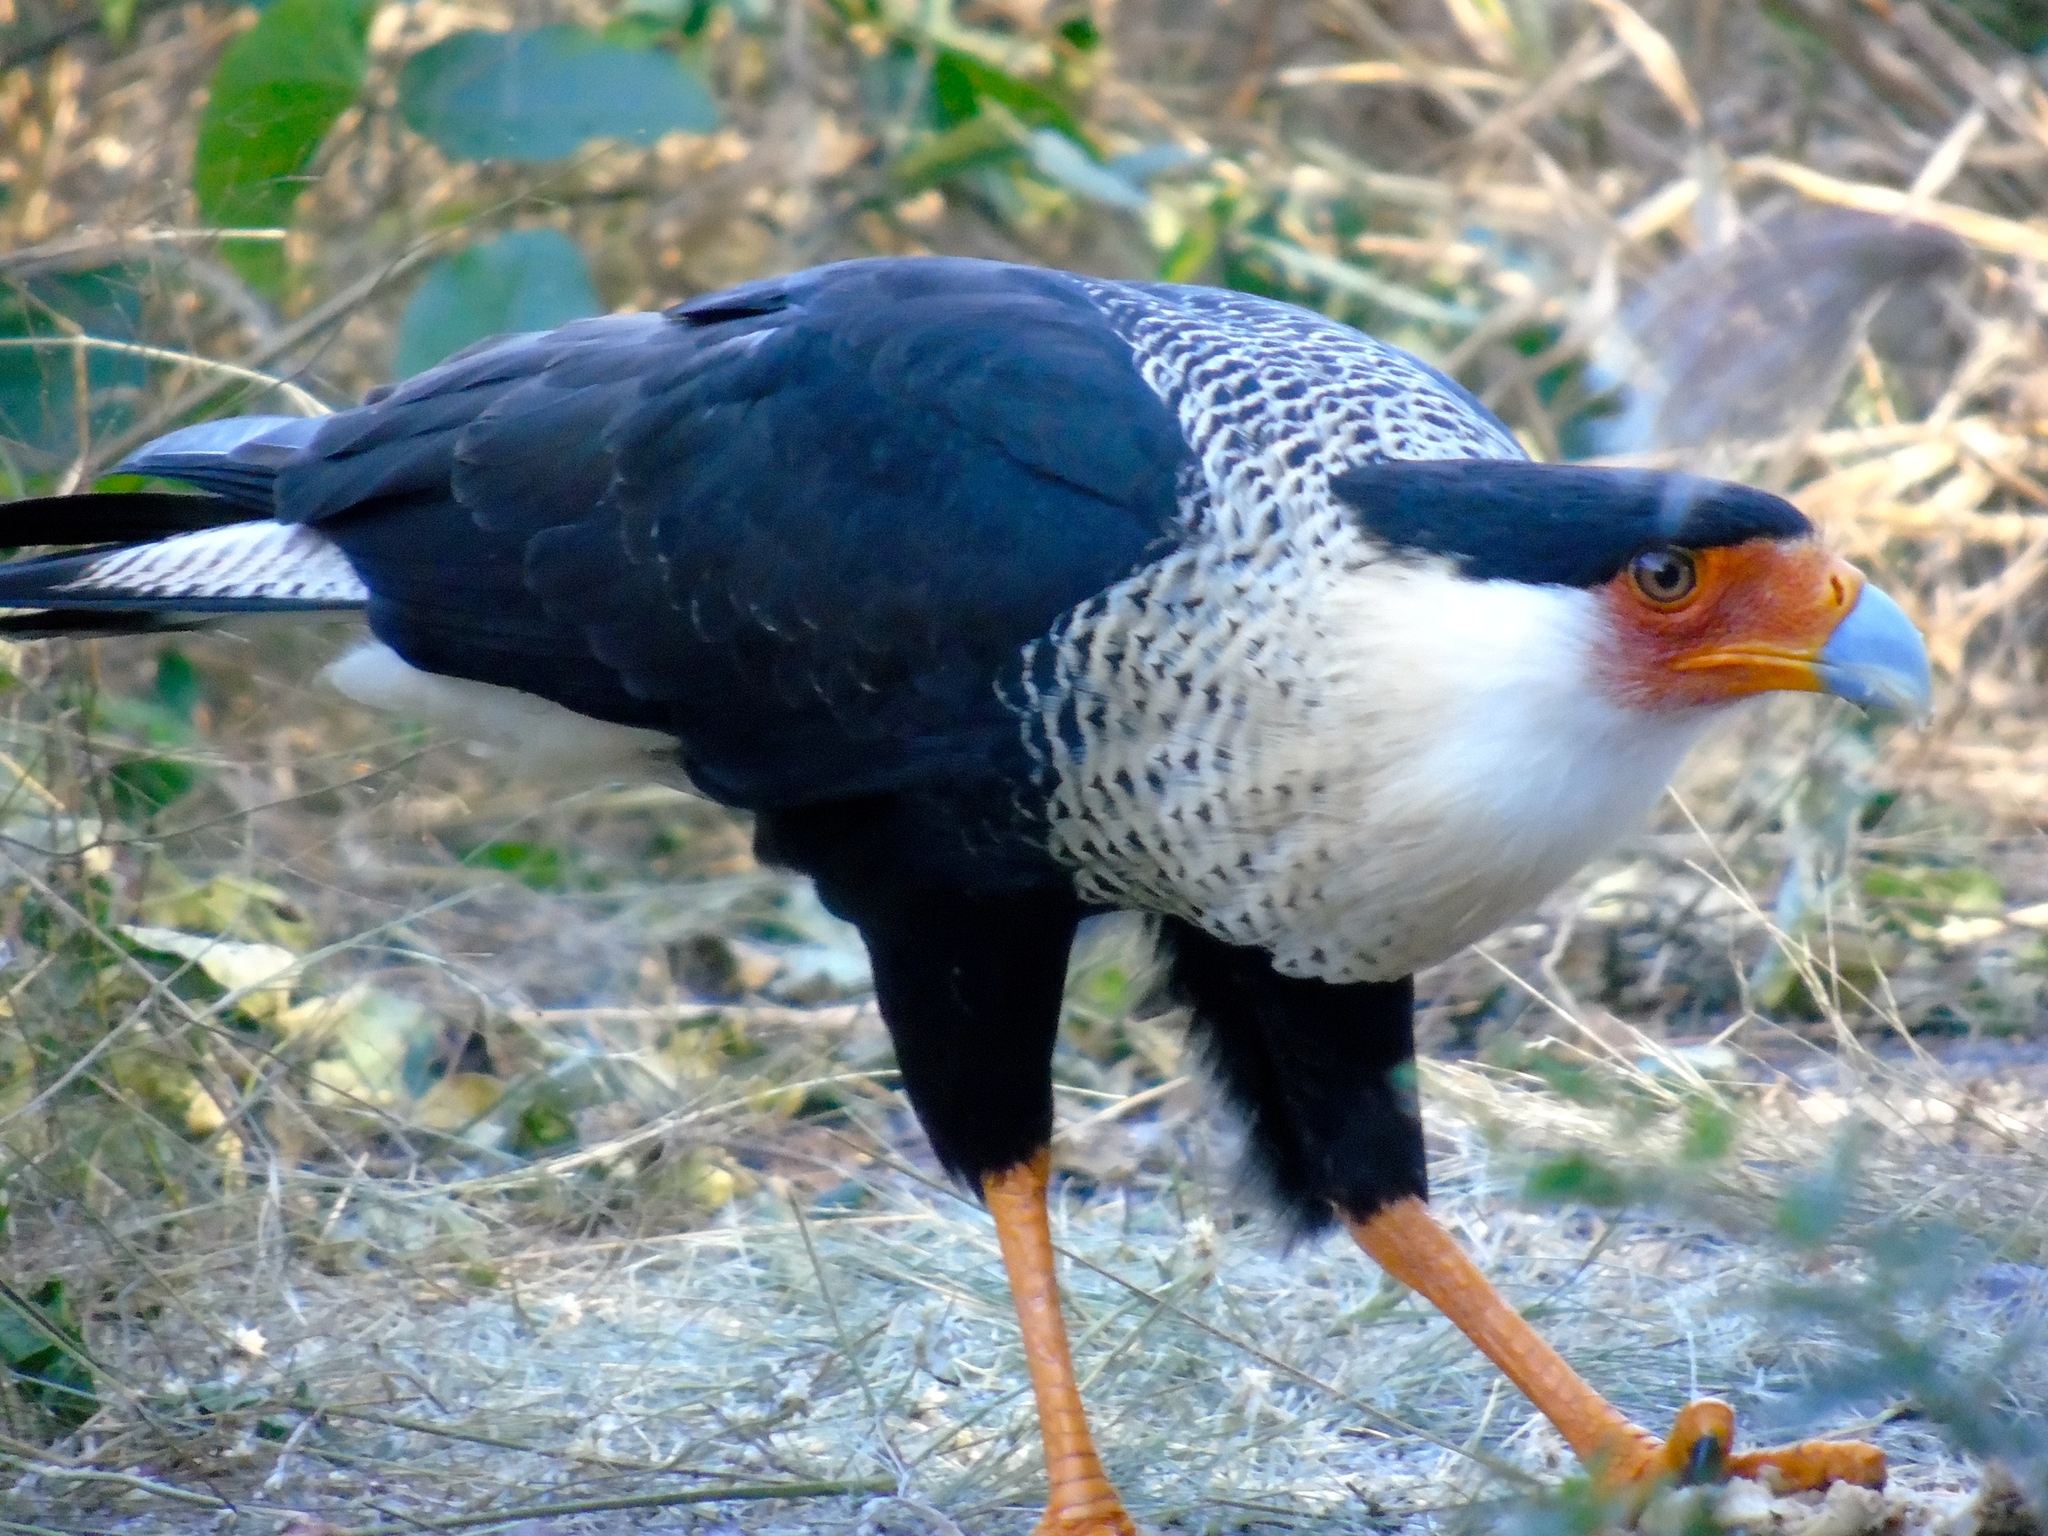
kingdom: Animalia
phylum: Chordata
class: Aves
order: Falconiformes
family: Falconidae
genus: Caracara
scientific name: Caracara plancus
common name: Southern caracara
